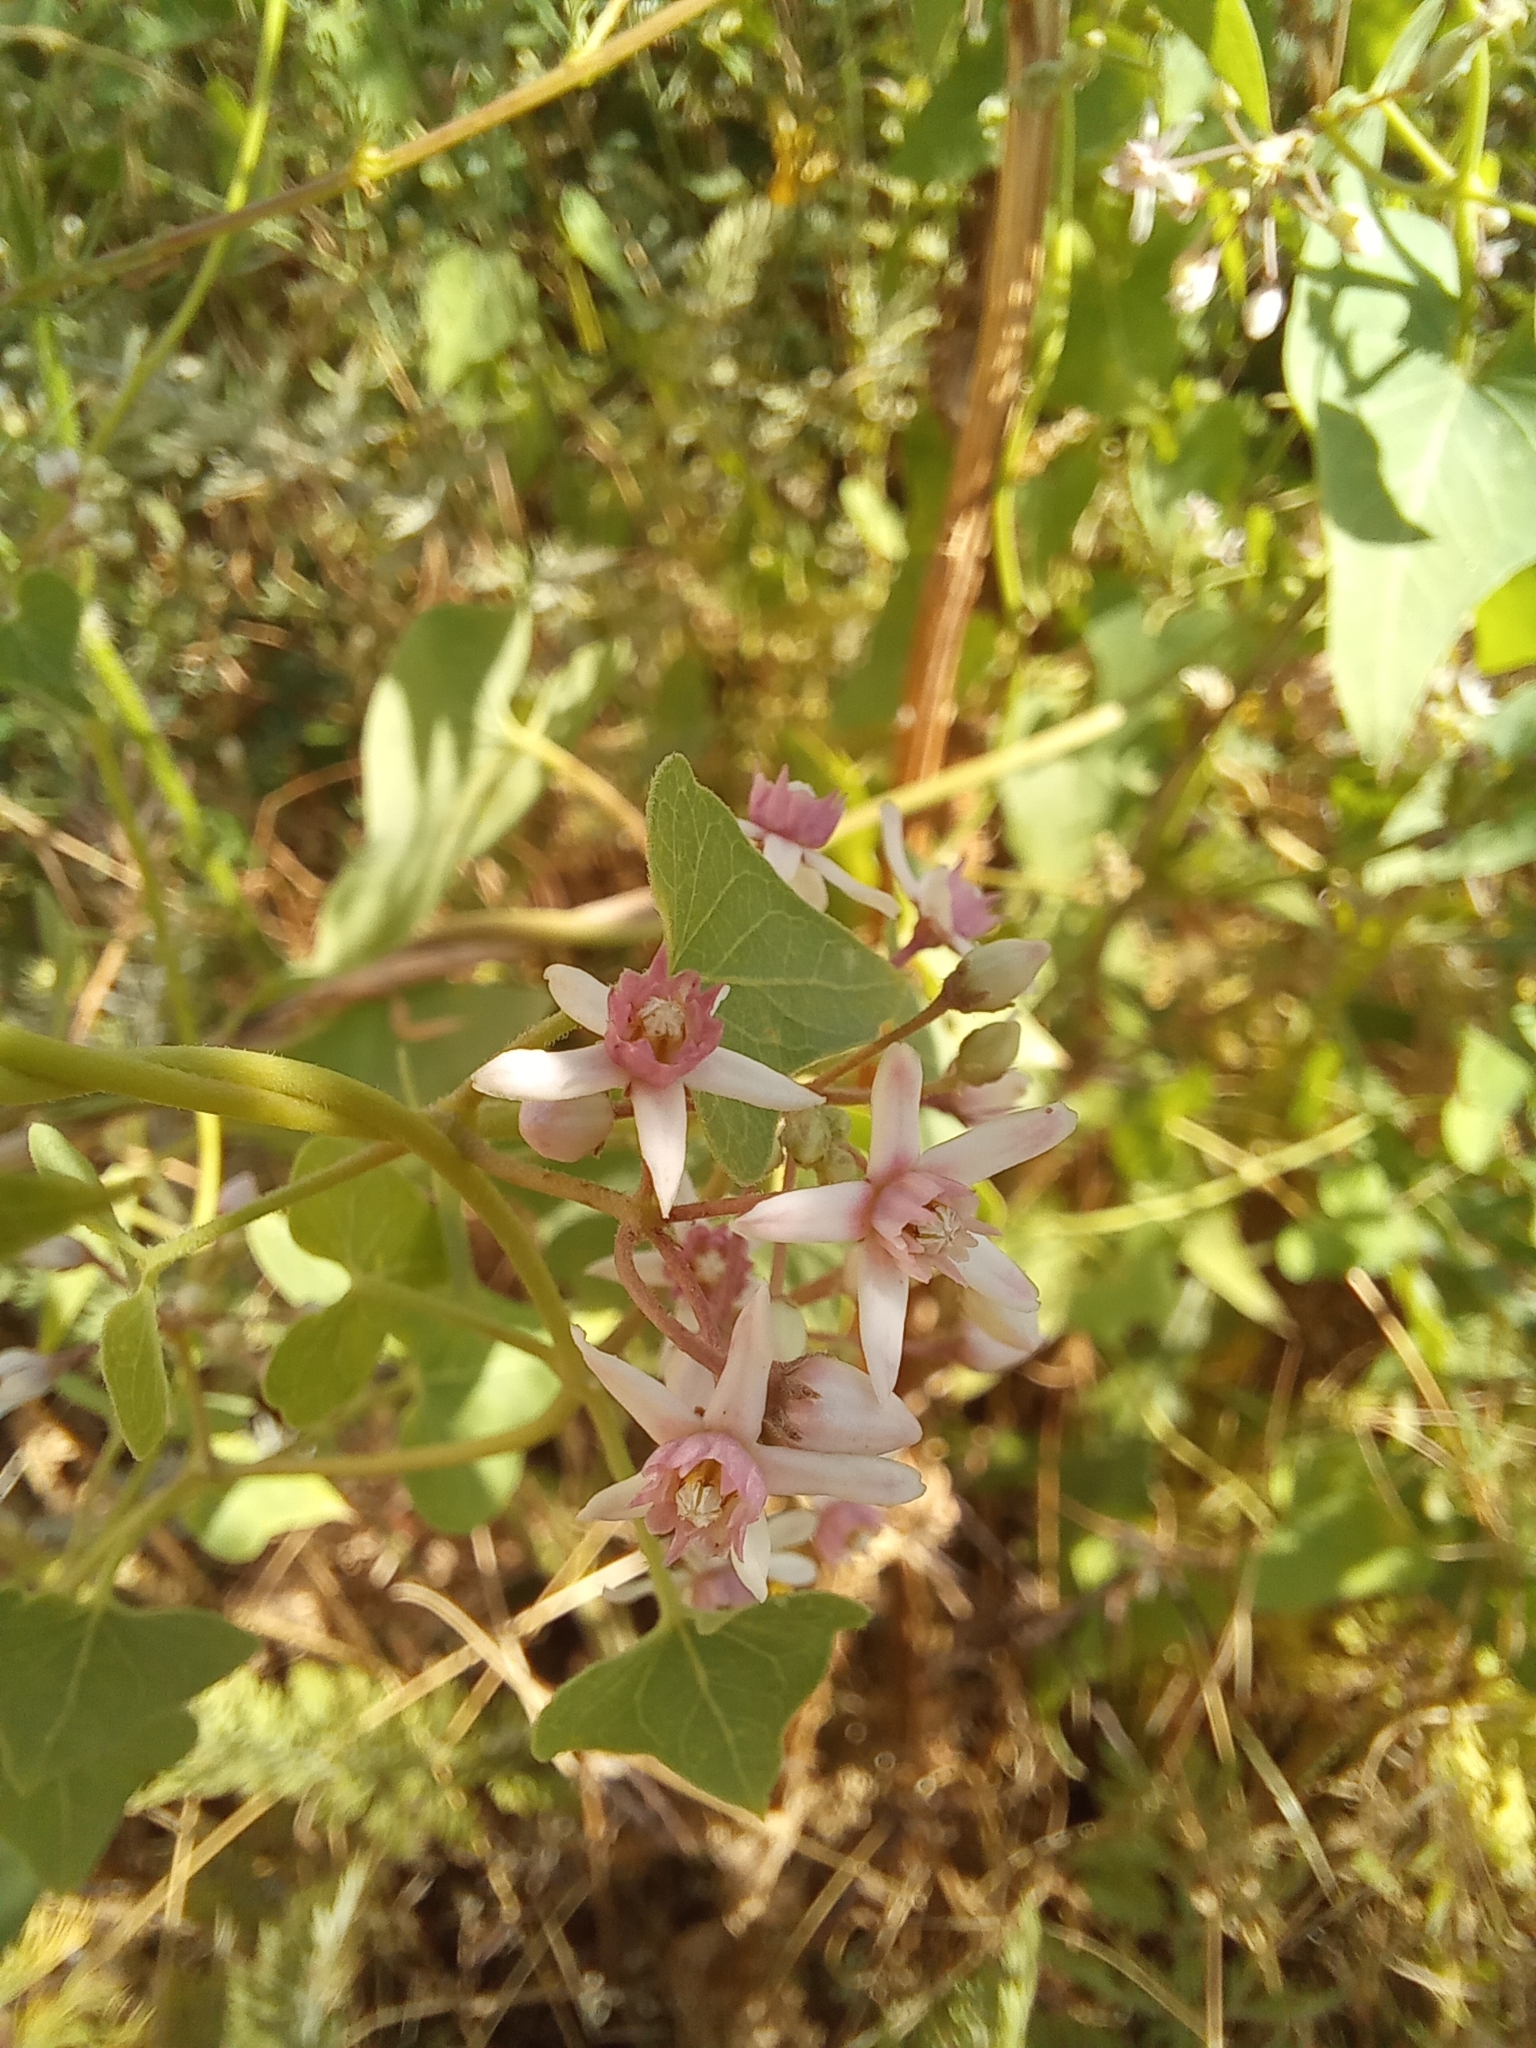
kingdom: Plantae
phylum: Tracheophyta
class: Magnoliopsida
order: Gentianales
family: Apocynaceae
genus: Cynanchum
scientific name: Cynanchum acutum
